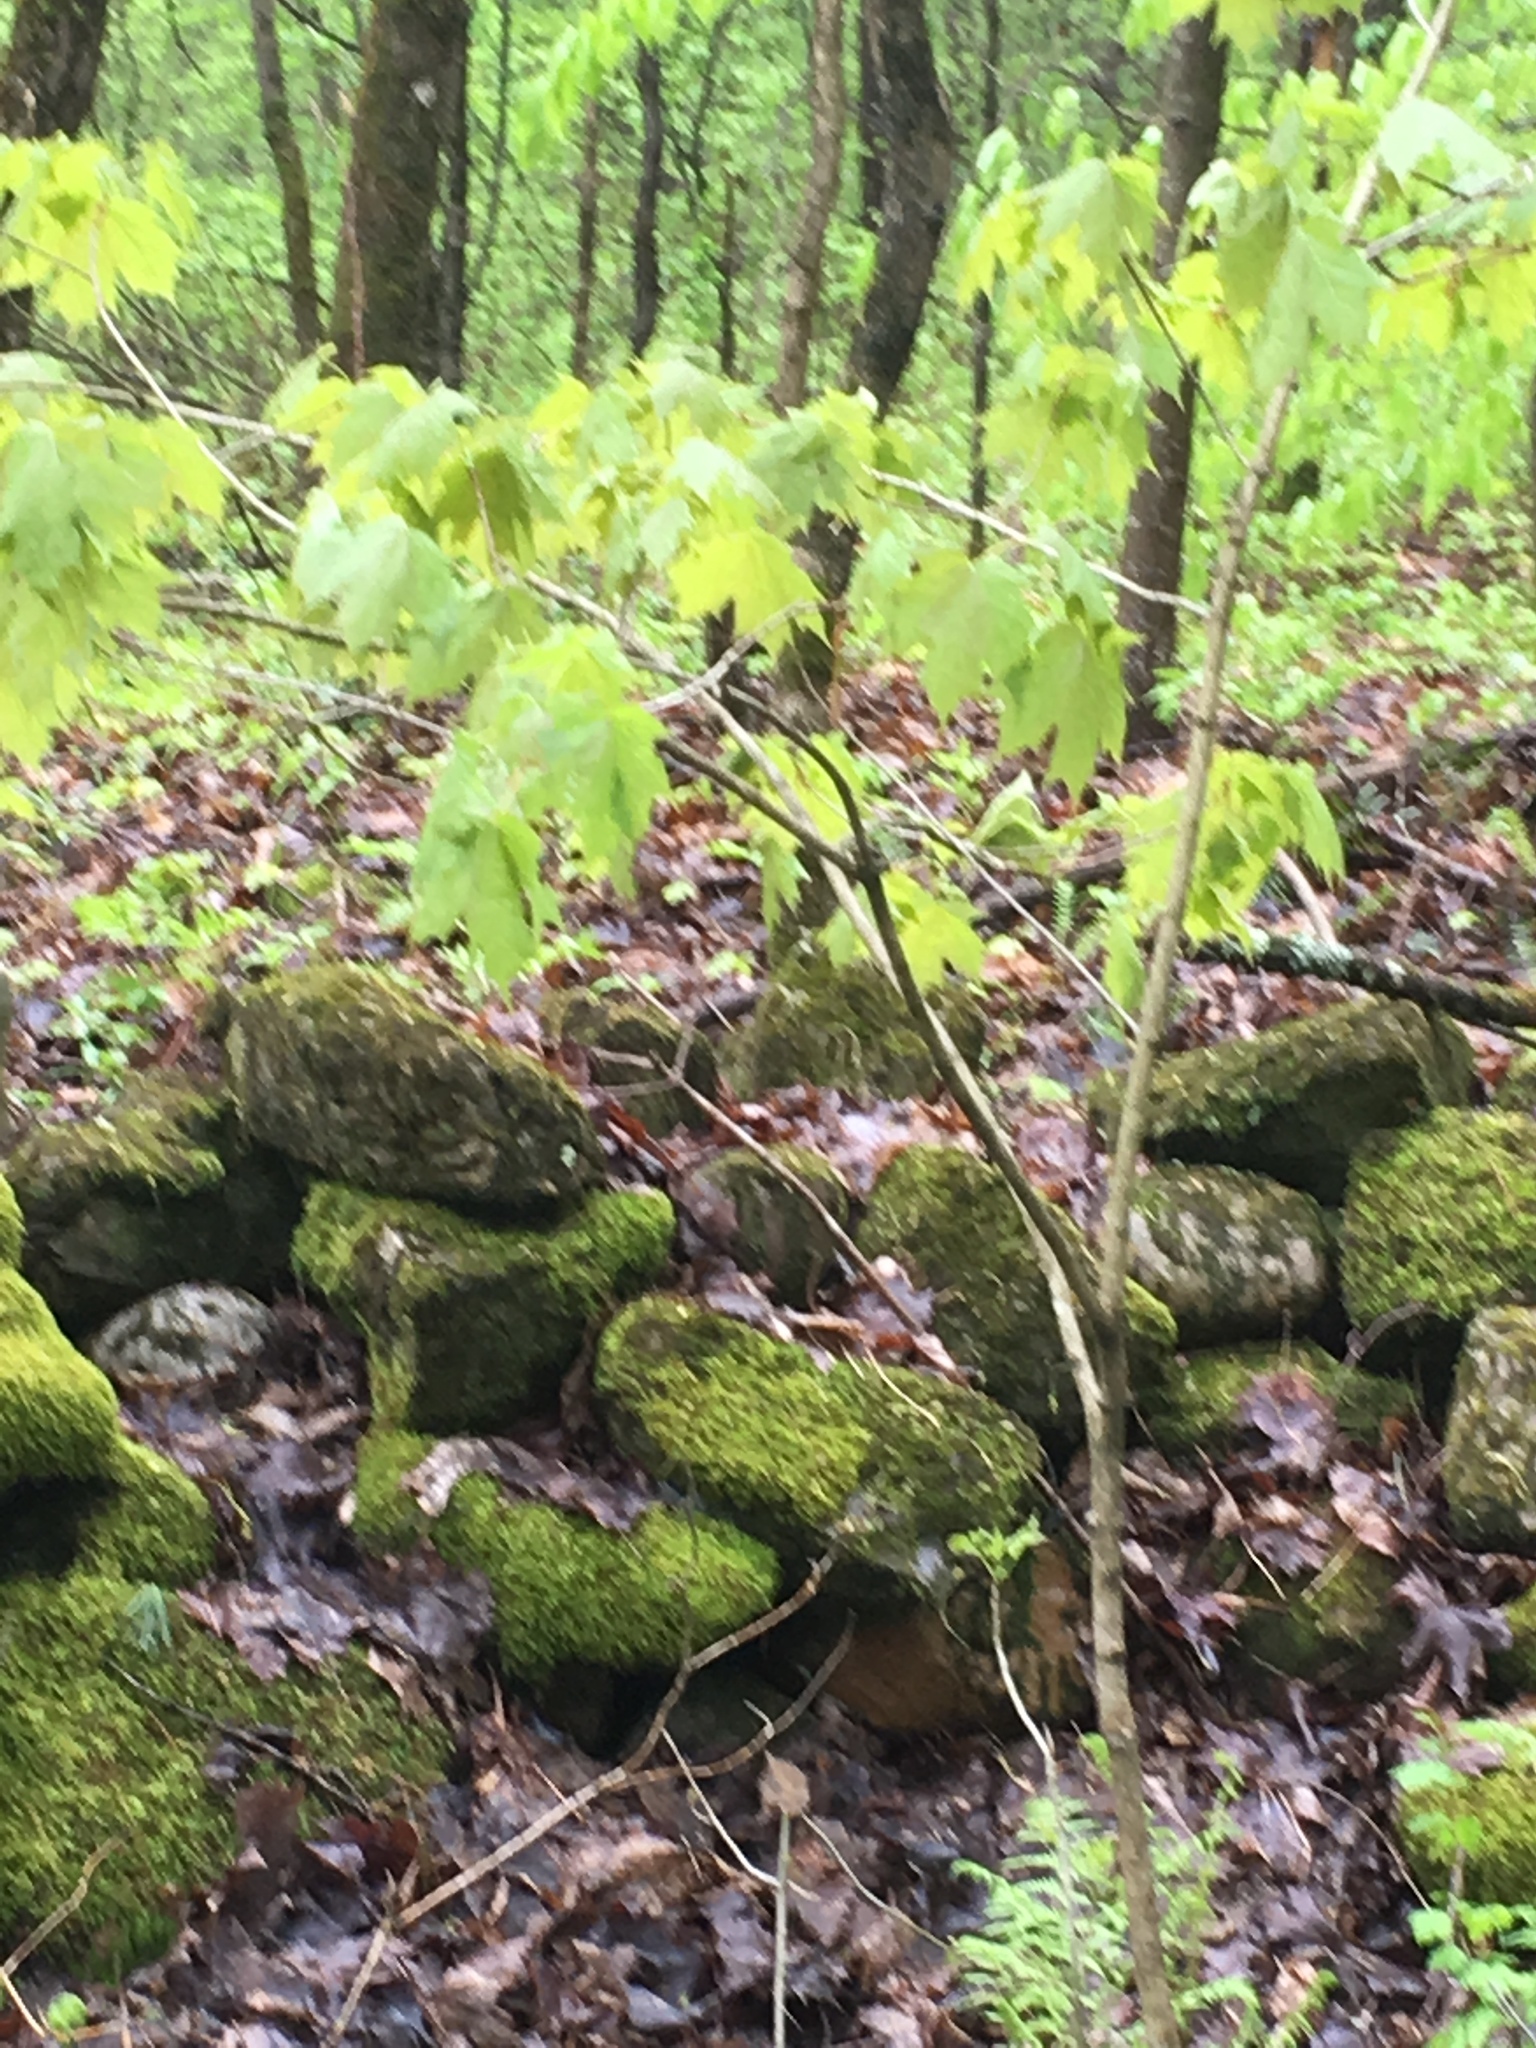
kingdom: Plantae
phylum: Tracheophyta
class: Magnoliopsida
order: Sapindales
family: Sapindaceae
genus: Acer
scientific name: Acer saccharum
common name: Sugar maple
